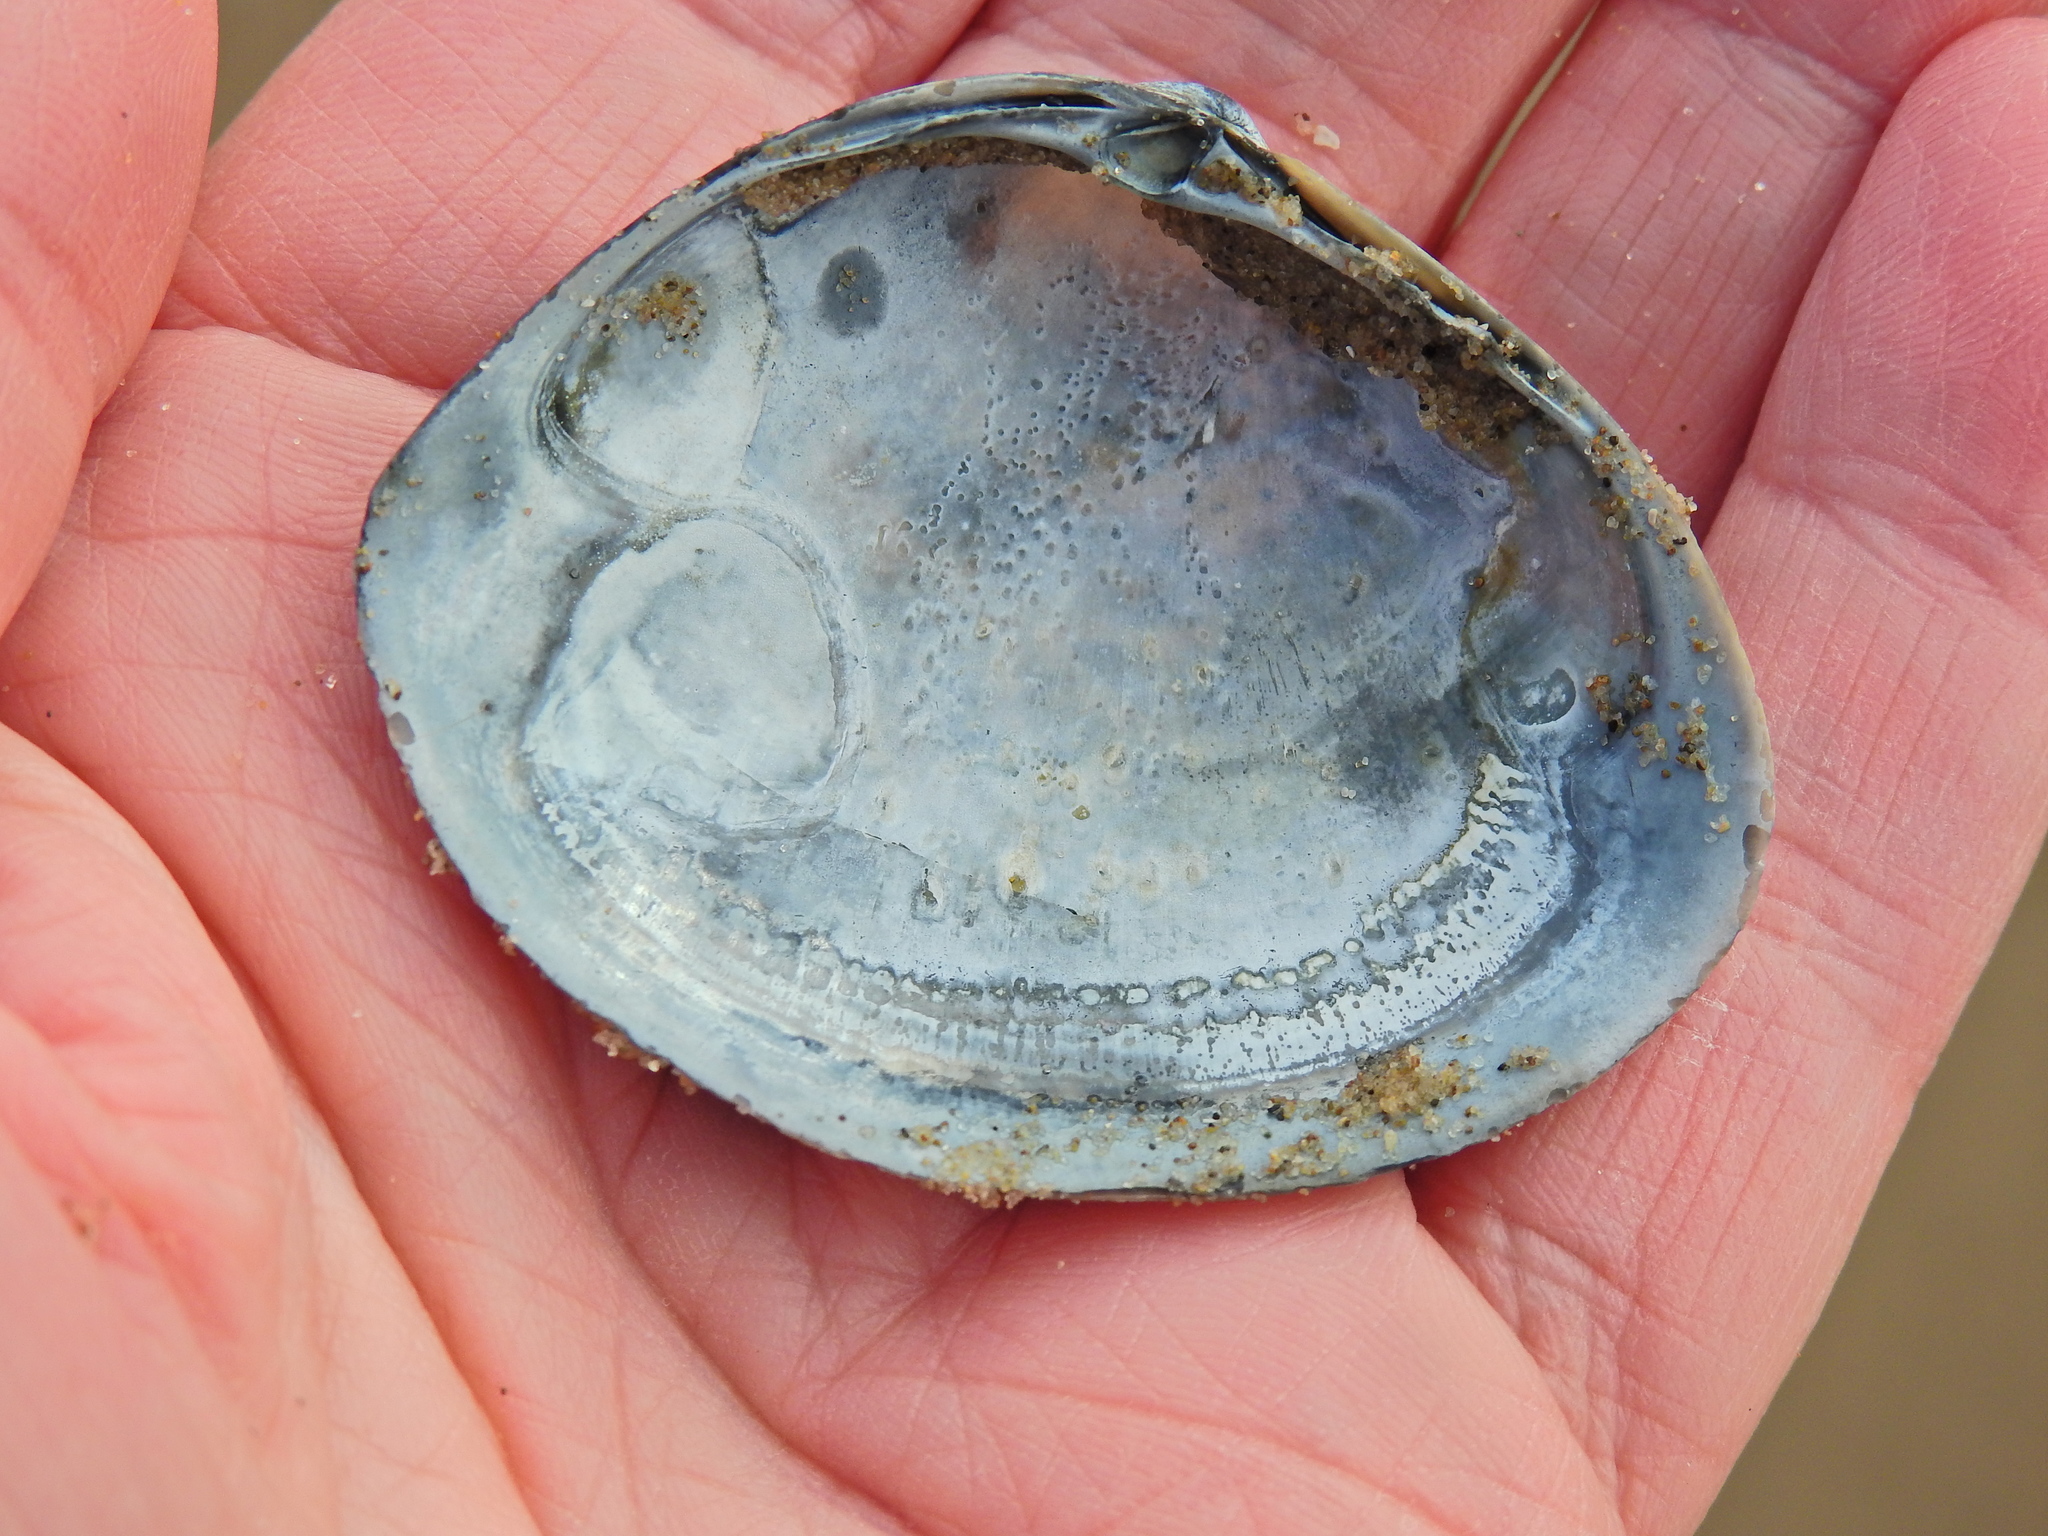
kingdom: Animalia
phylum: Mollusca
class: Bivalvia
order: Venerida
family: Mactridae
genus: Mactra
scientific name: Mactra stultorum
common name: Rayed trough shell
